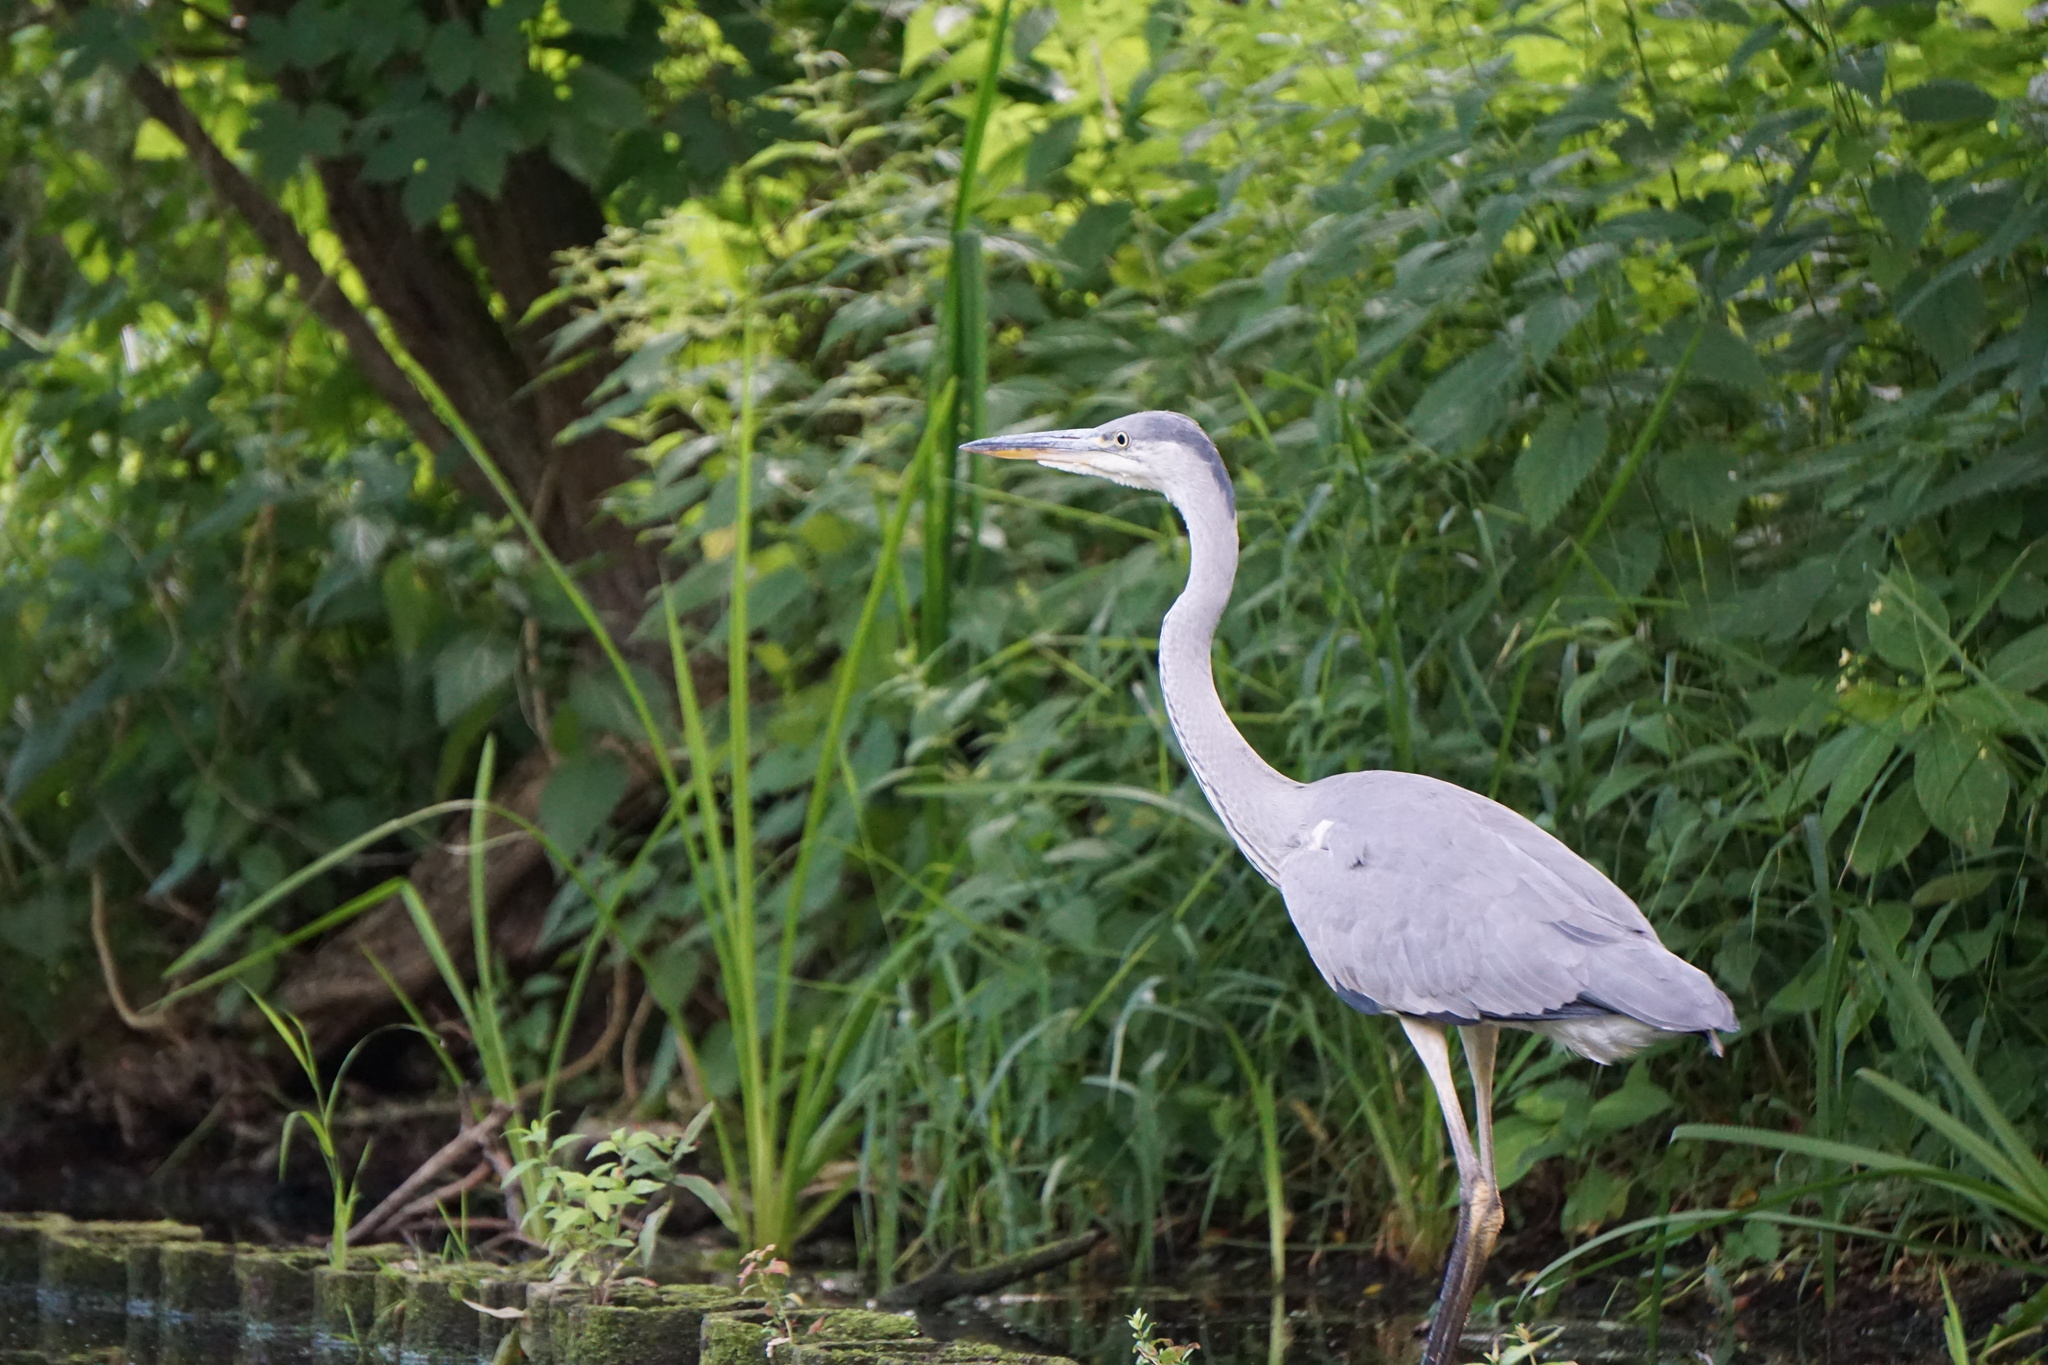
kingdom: Animalia
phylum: Chordata
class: Aves
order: Pelecaniformes
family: Ardeidae
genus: Ardea
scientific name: Ardea cinerea
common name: Grey heron
